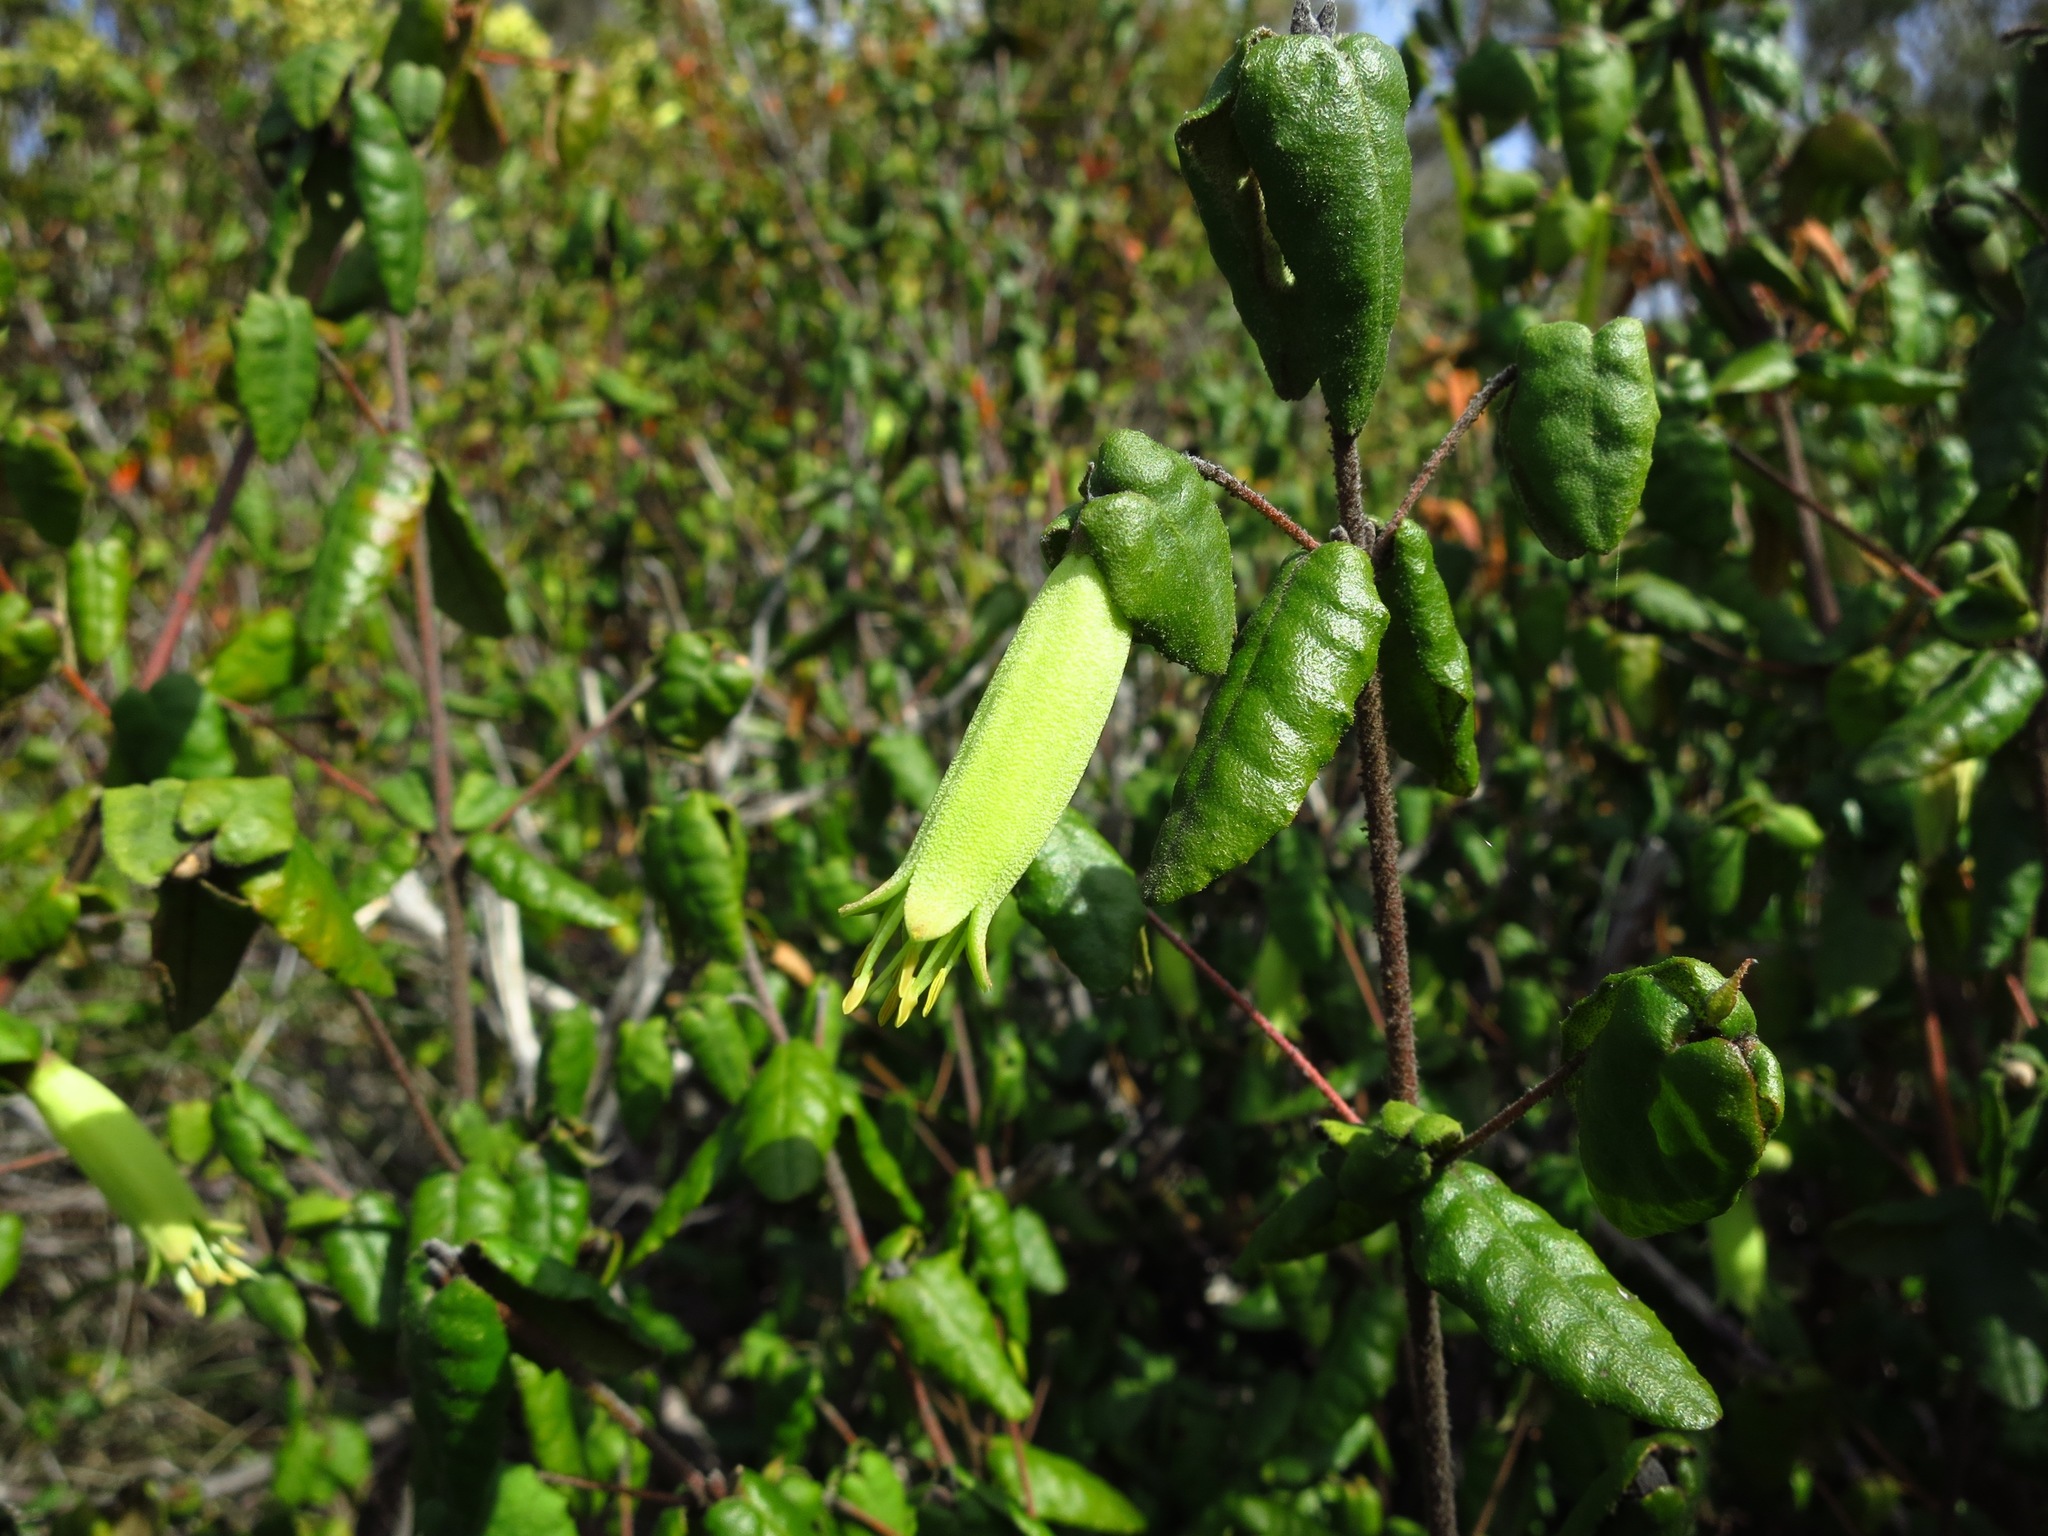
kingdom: Plantae
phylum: Tracheophyta
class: Magnoliopsida
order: Sapindales
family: Rutaceae
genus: Correa
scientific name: Correa reflexa
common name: Common correa
